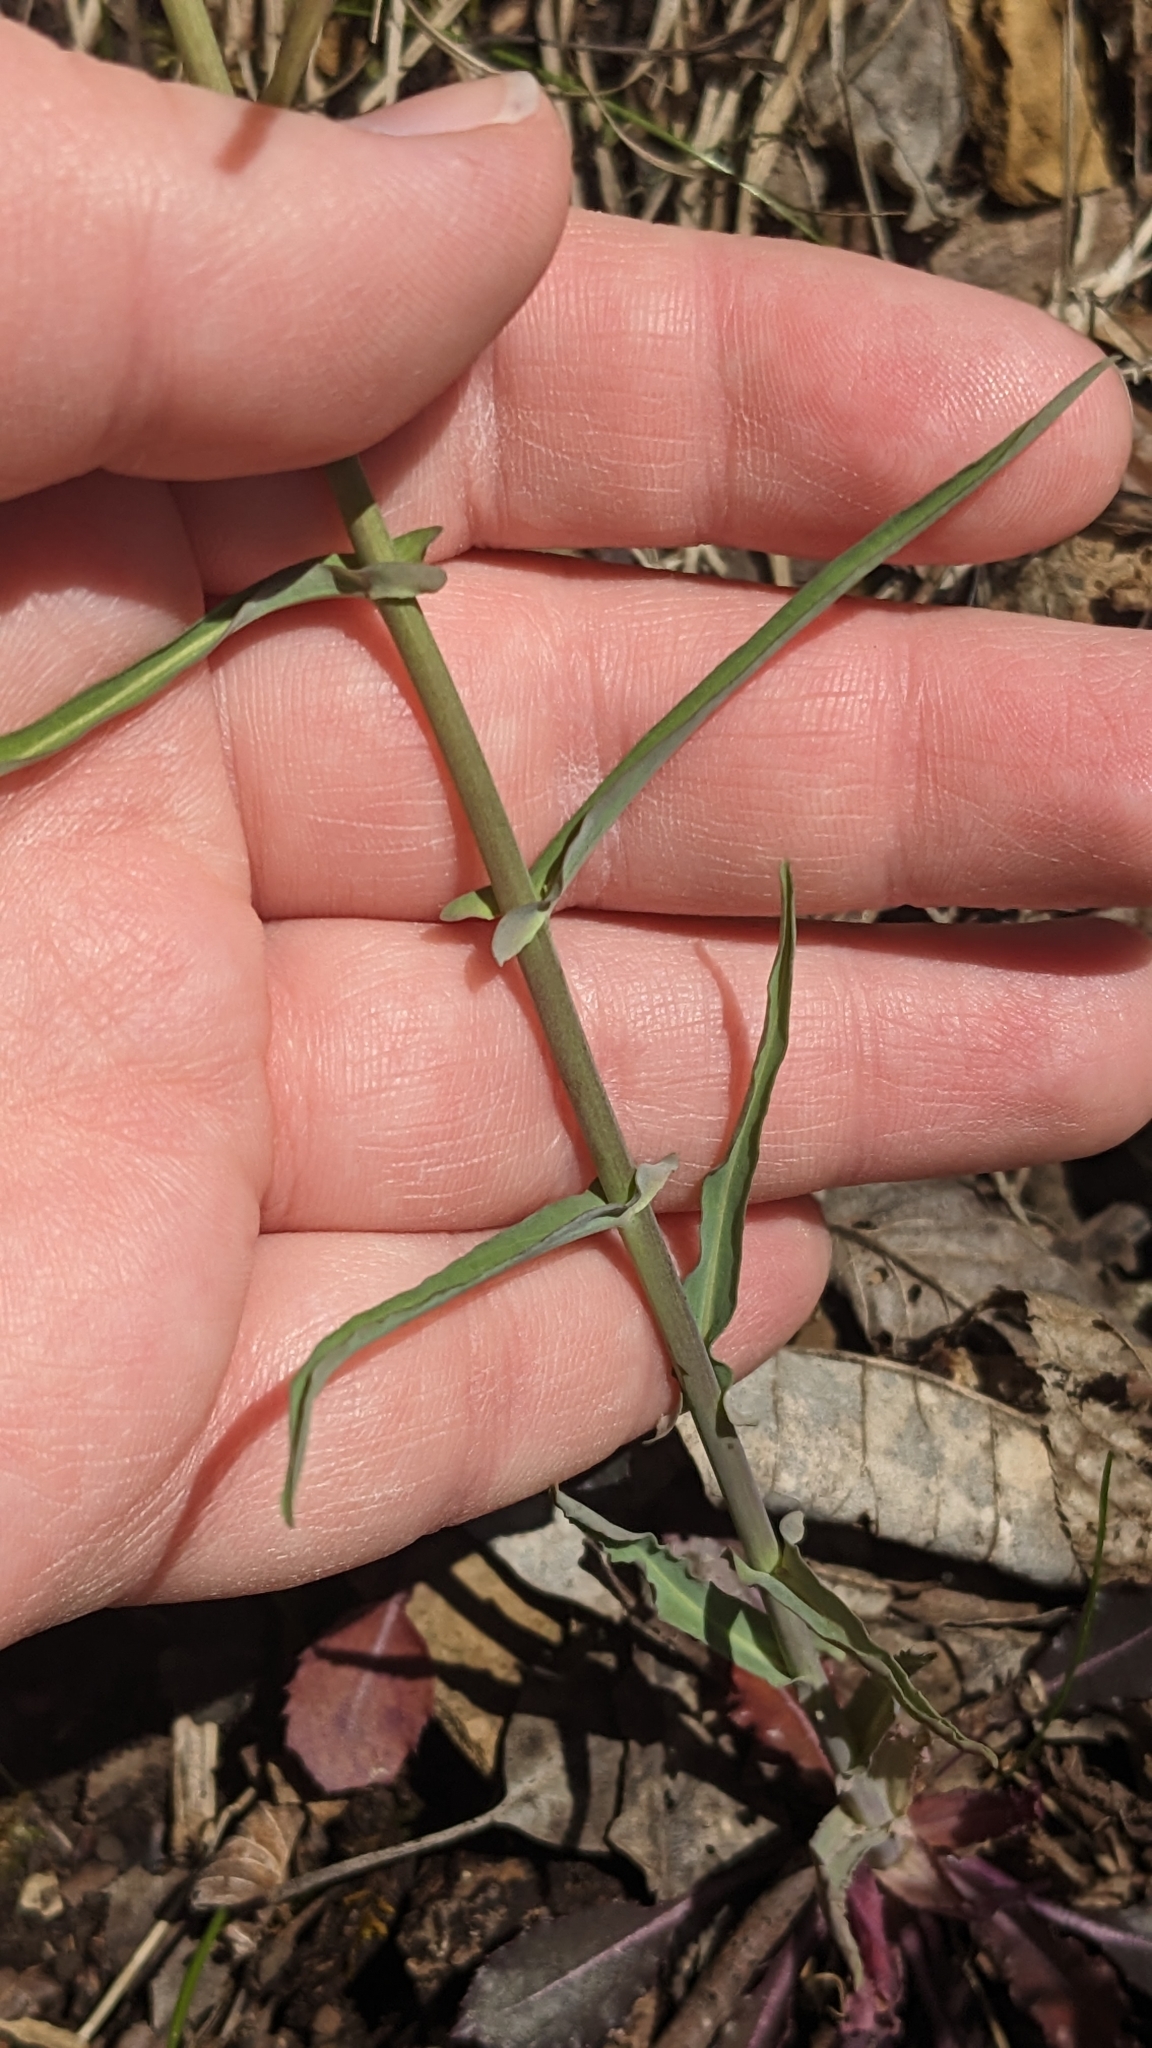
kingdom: Plantae
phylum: Tracheophyta
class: Magnoliopsida
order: Brassicales
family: Brassicaceae
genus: Borodinia
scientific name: Borodinia laevigata
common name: Smooth rockcress
